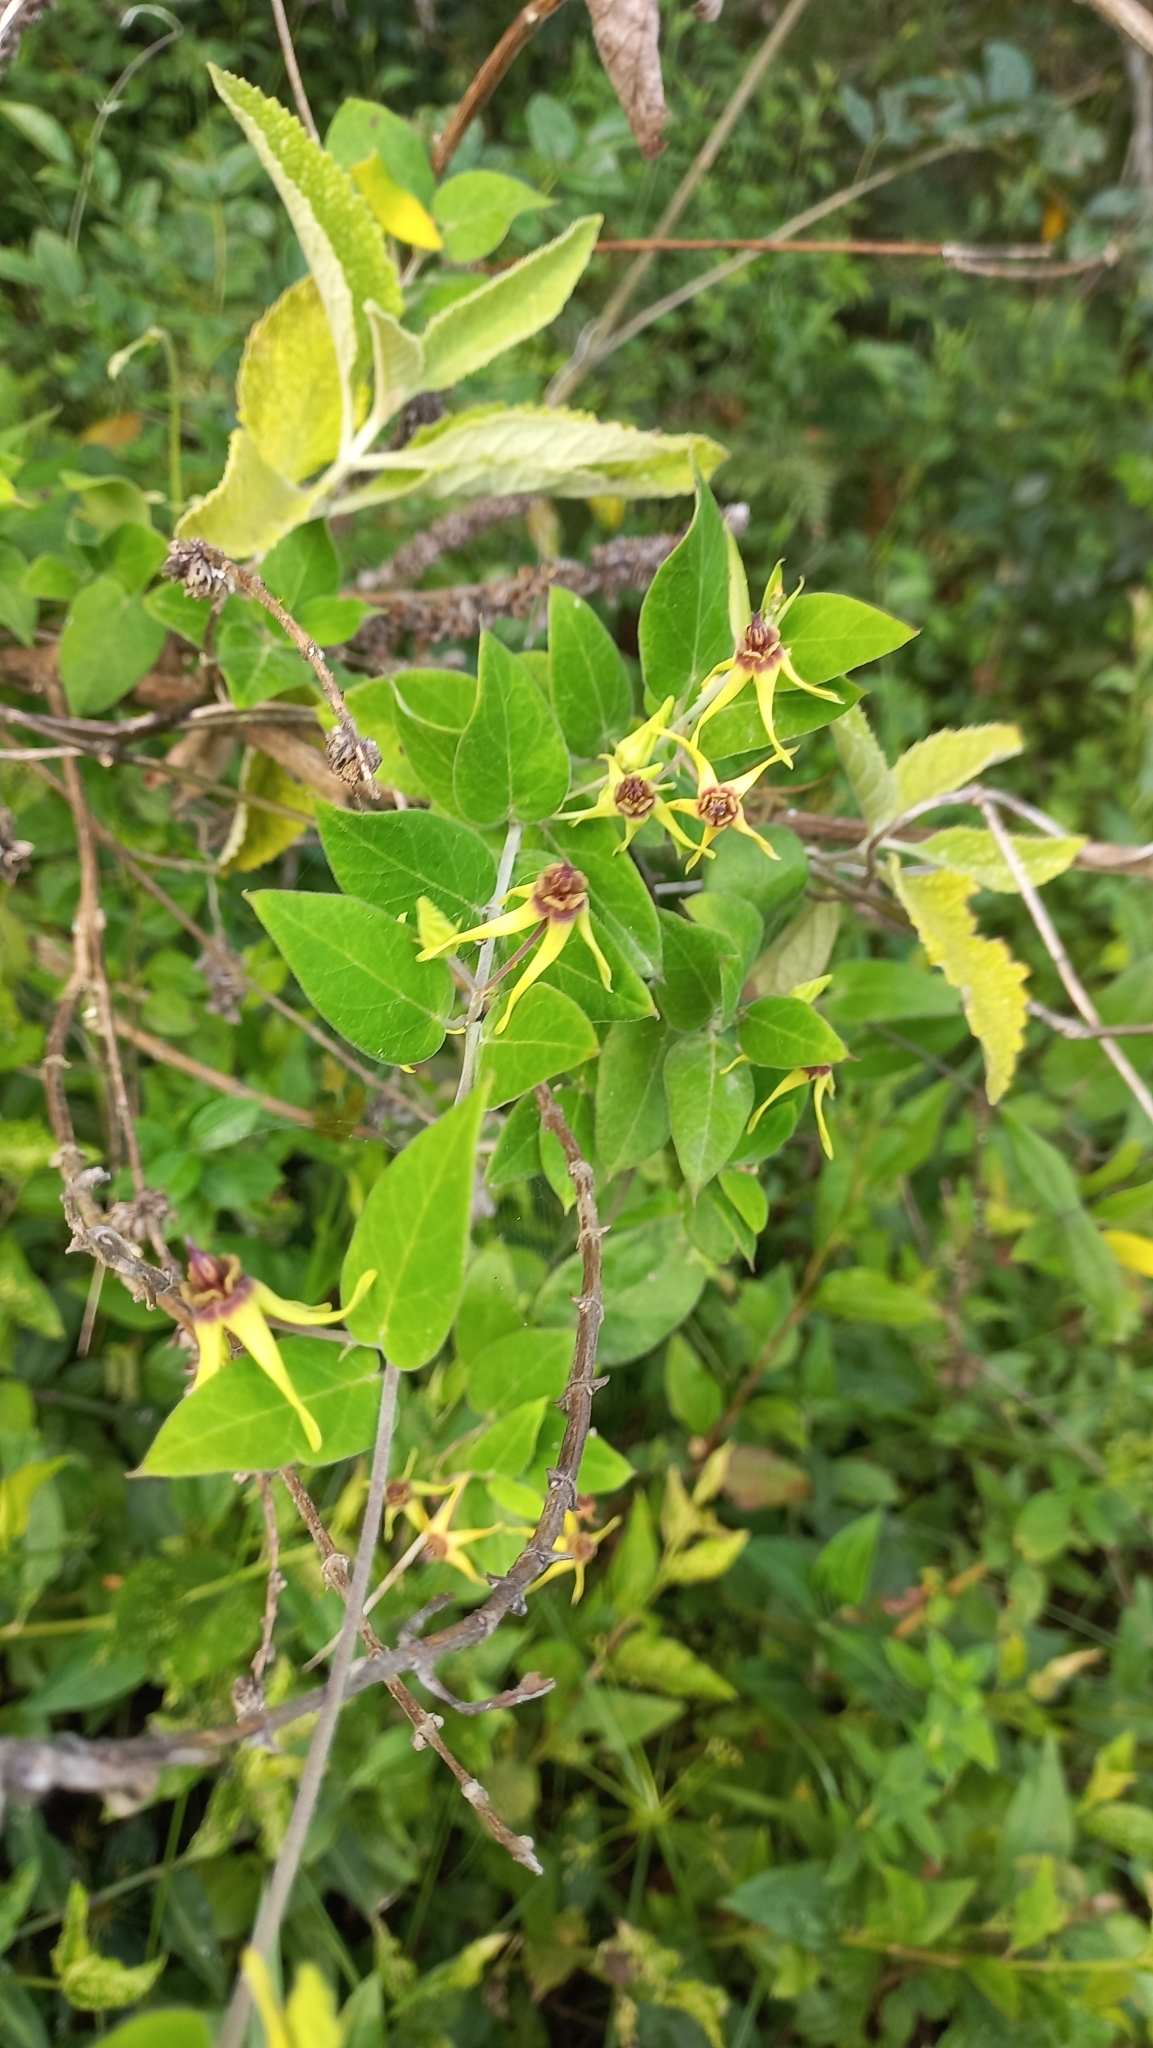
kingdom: Plantae
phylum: Tracheophyta
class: Magnoliopsida
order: Gentianales
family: Apocynaceae
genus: Oxypetalum
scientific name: Oxypetalum banksii
